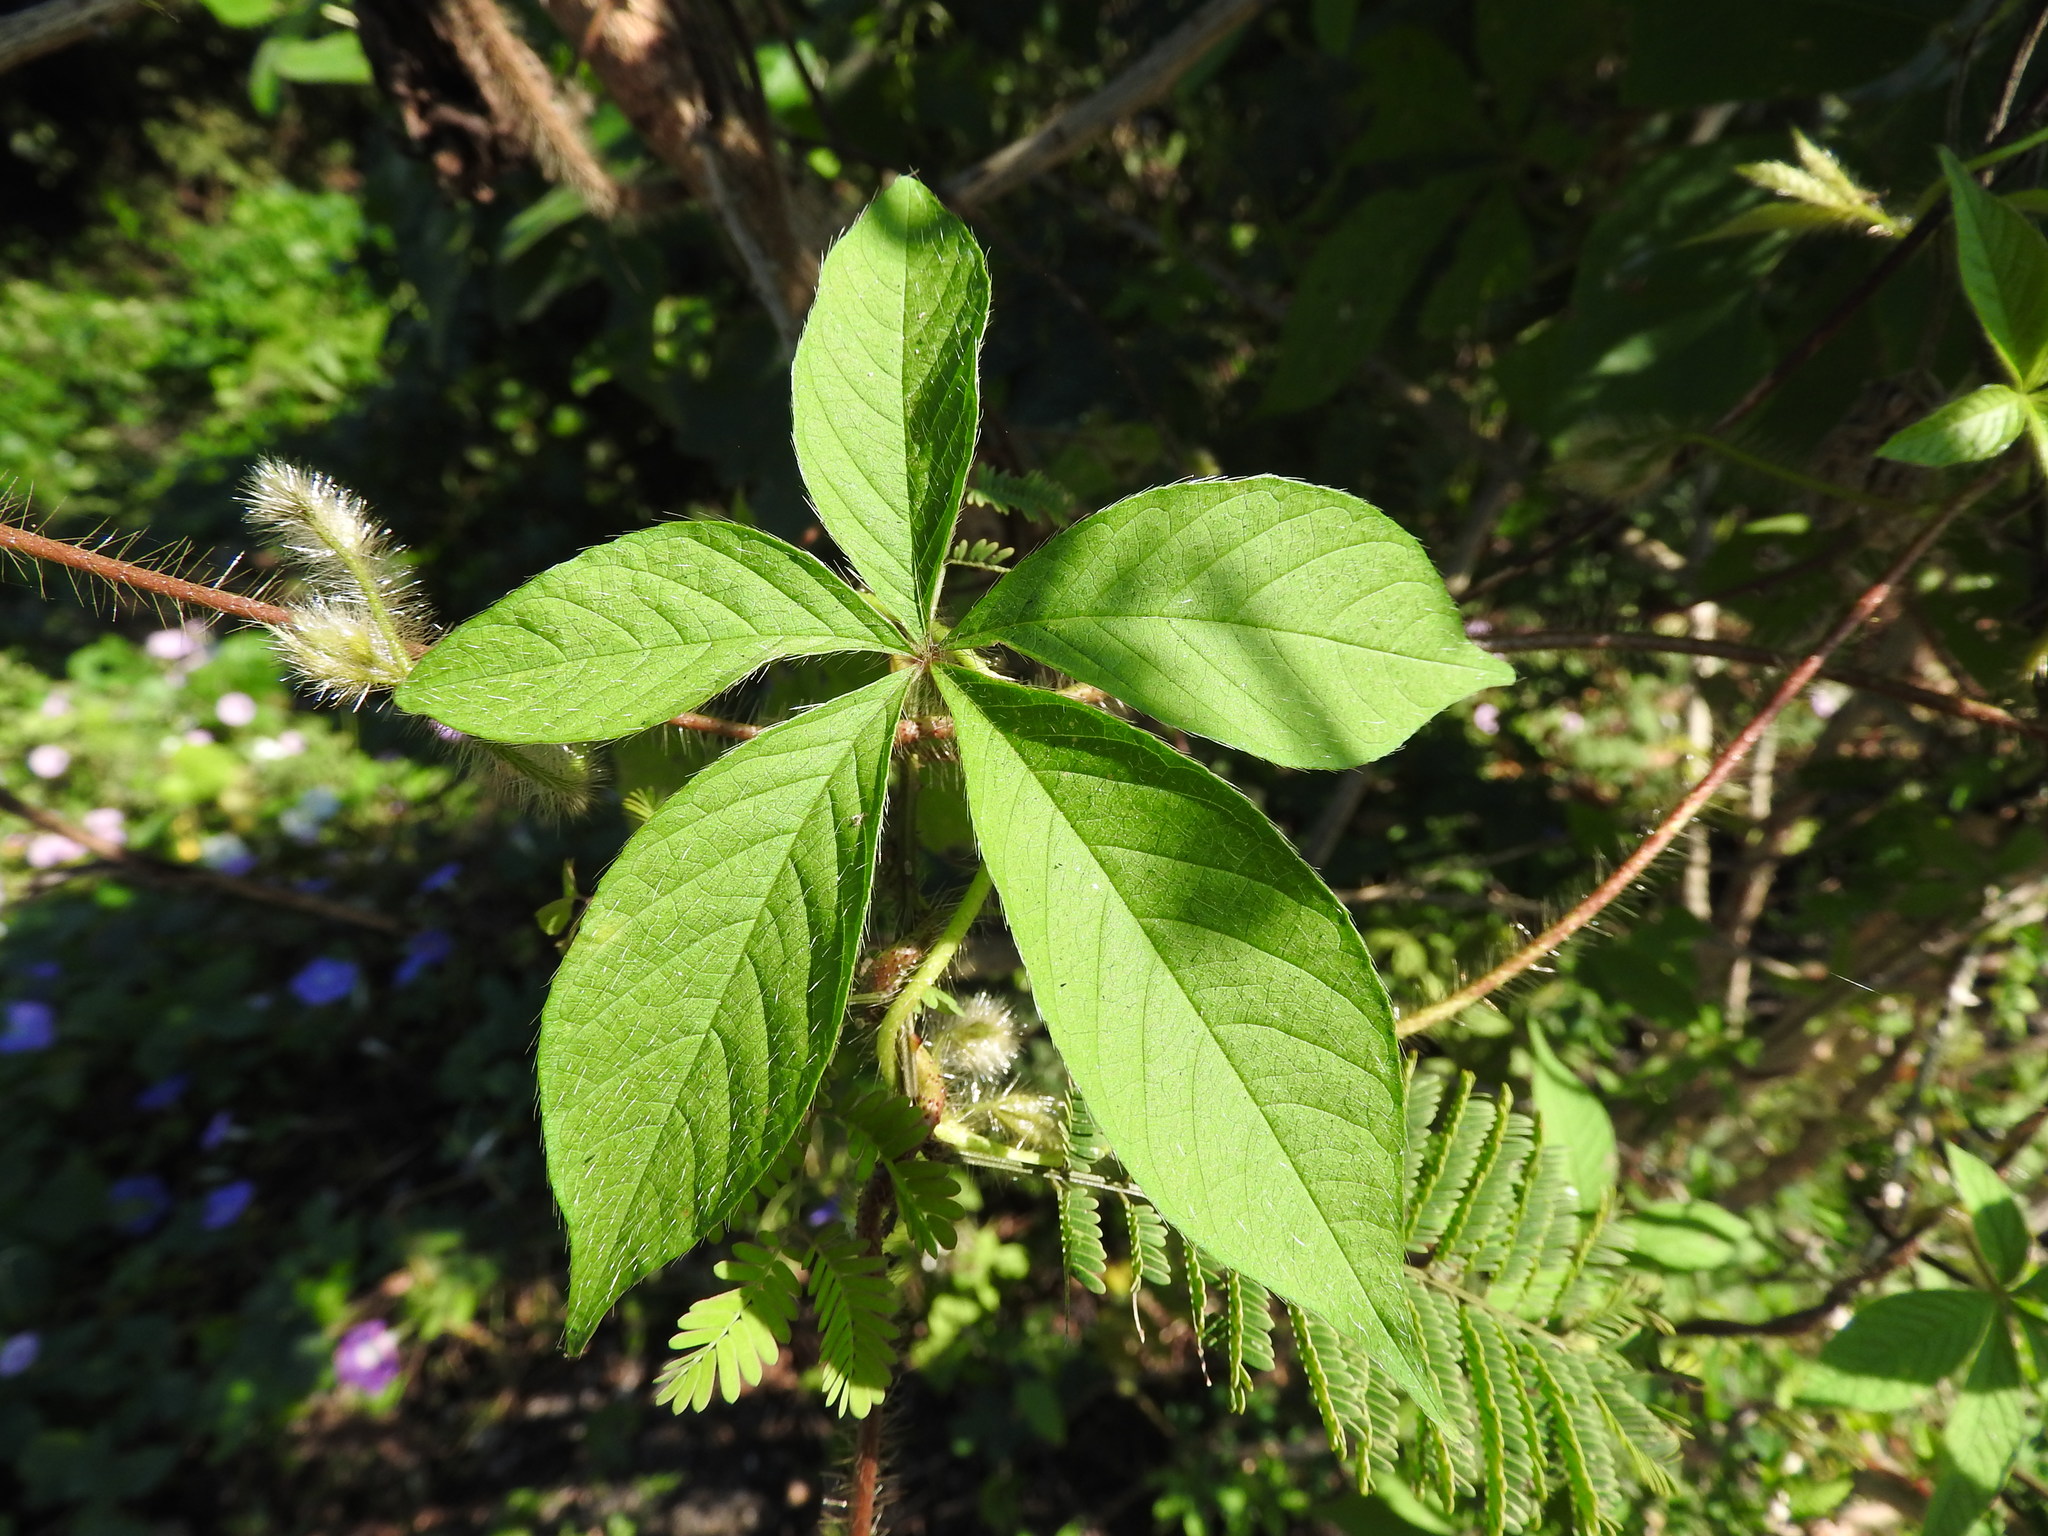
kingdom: Plantae
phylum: Tracheophyta
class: Magnoliopsida
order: Solanales
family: Convolvulaceae
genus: Distimake
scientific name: Distimake aegyptius
